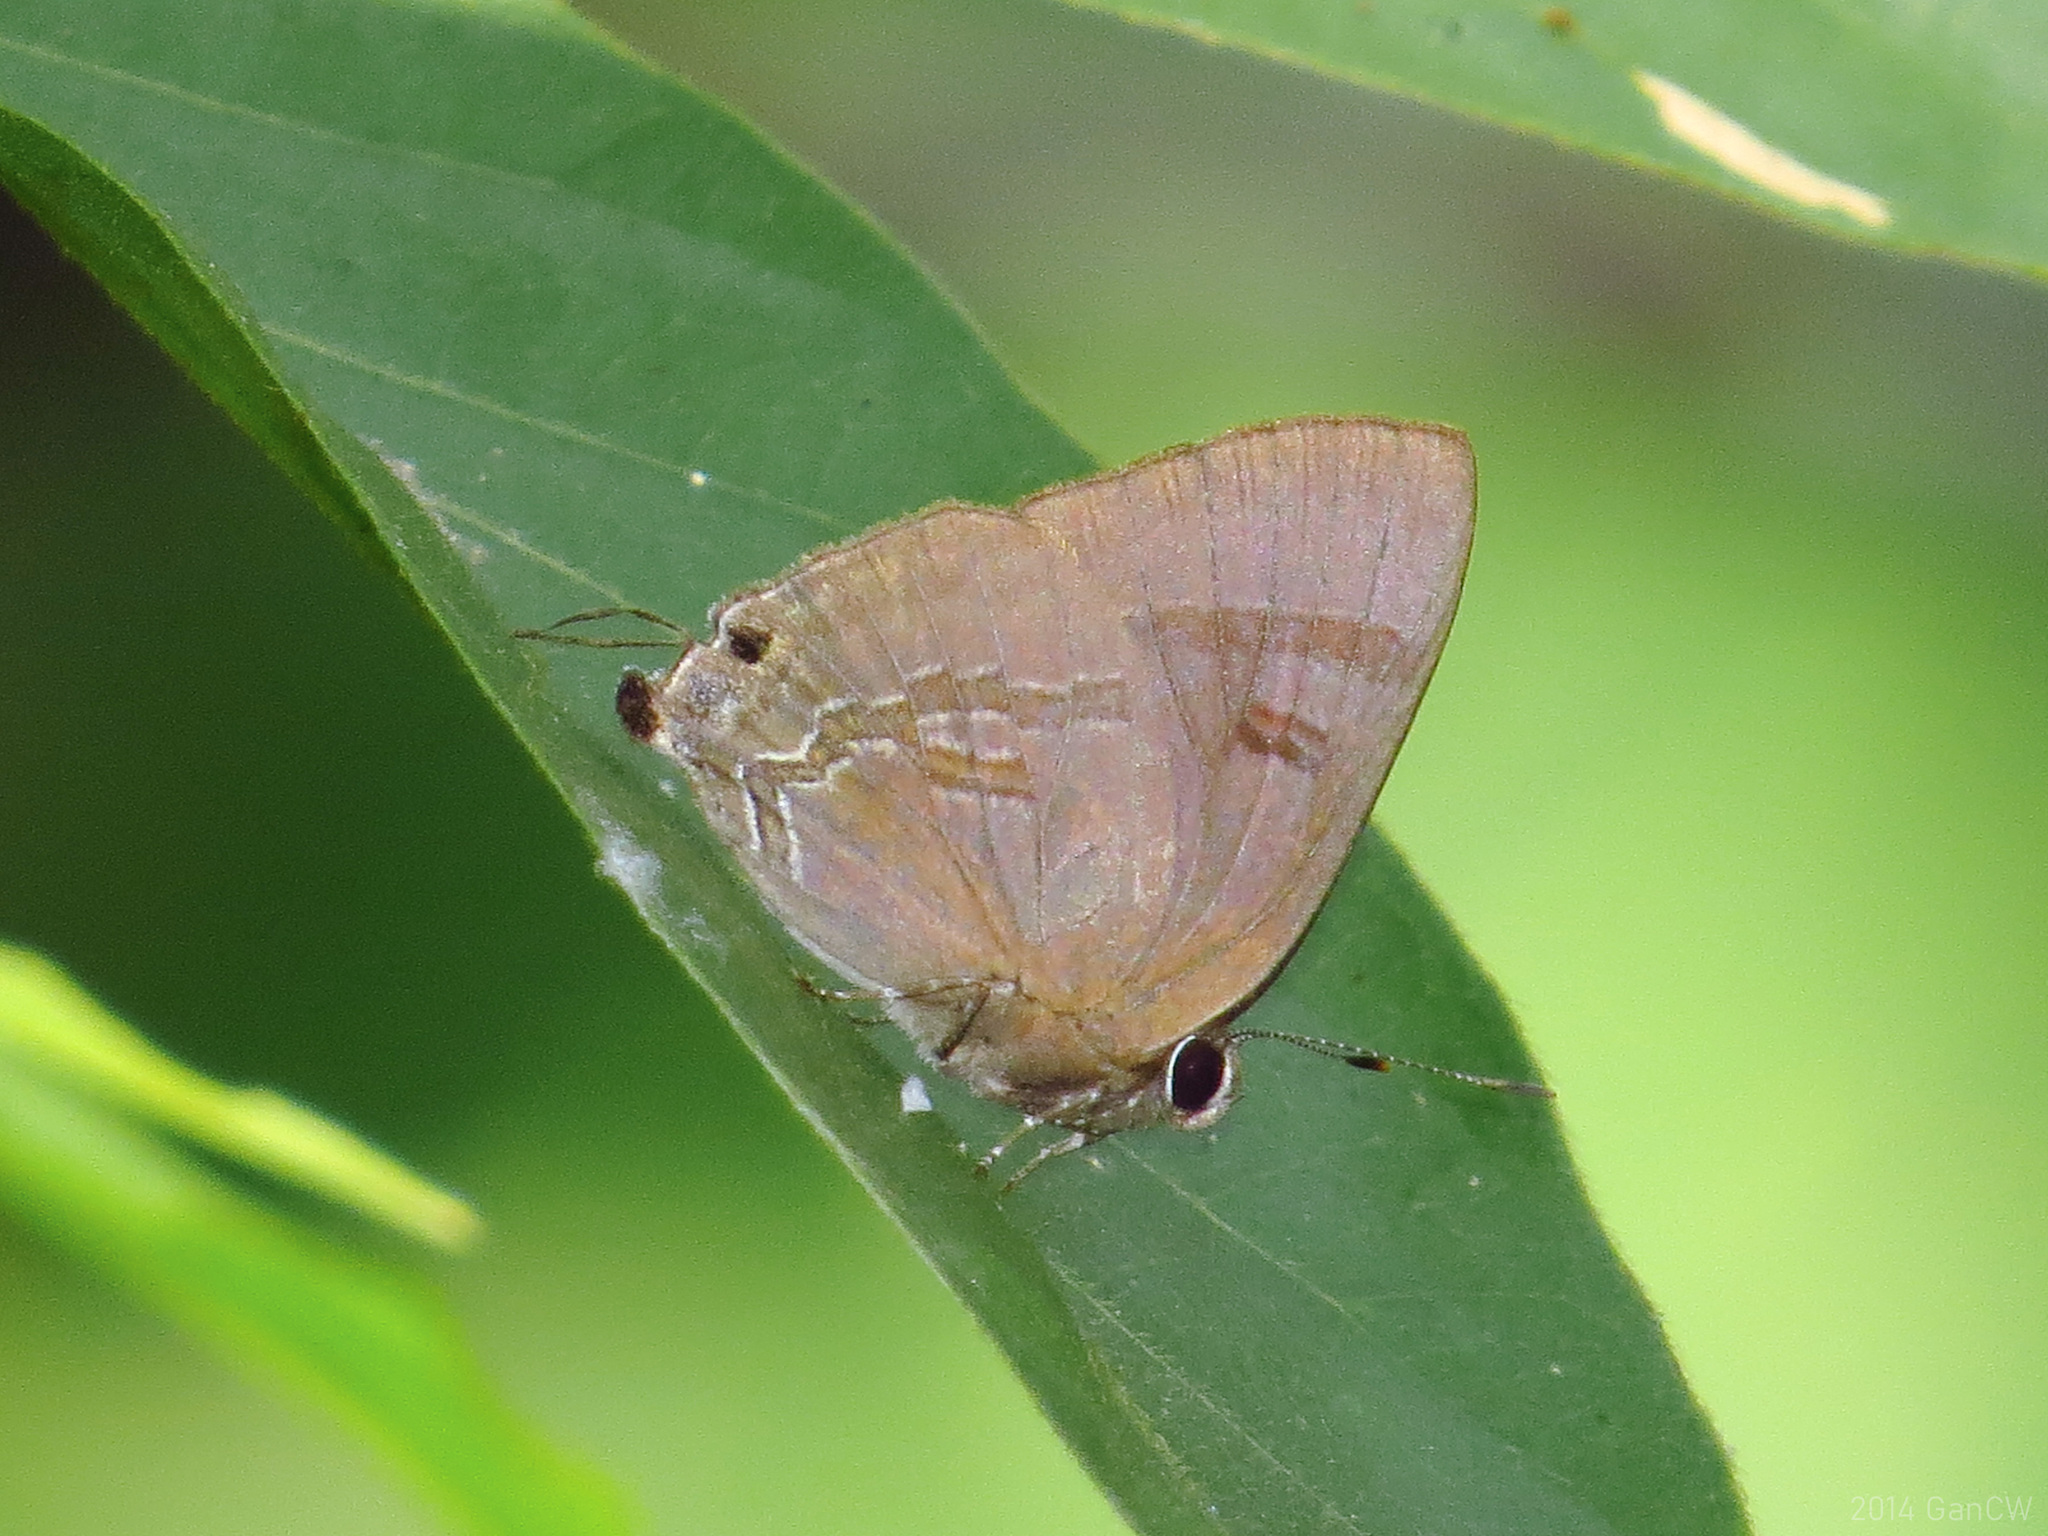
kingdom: Animalia
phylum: Arthropoda
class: Insecta
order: Lepidoptera
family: Lycaenidae
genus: Rapala
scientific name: Rapala varuna
